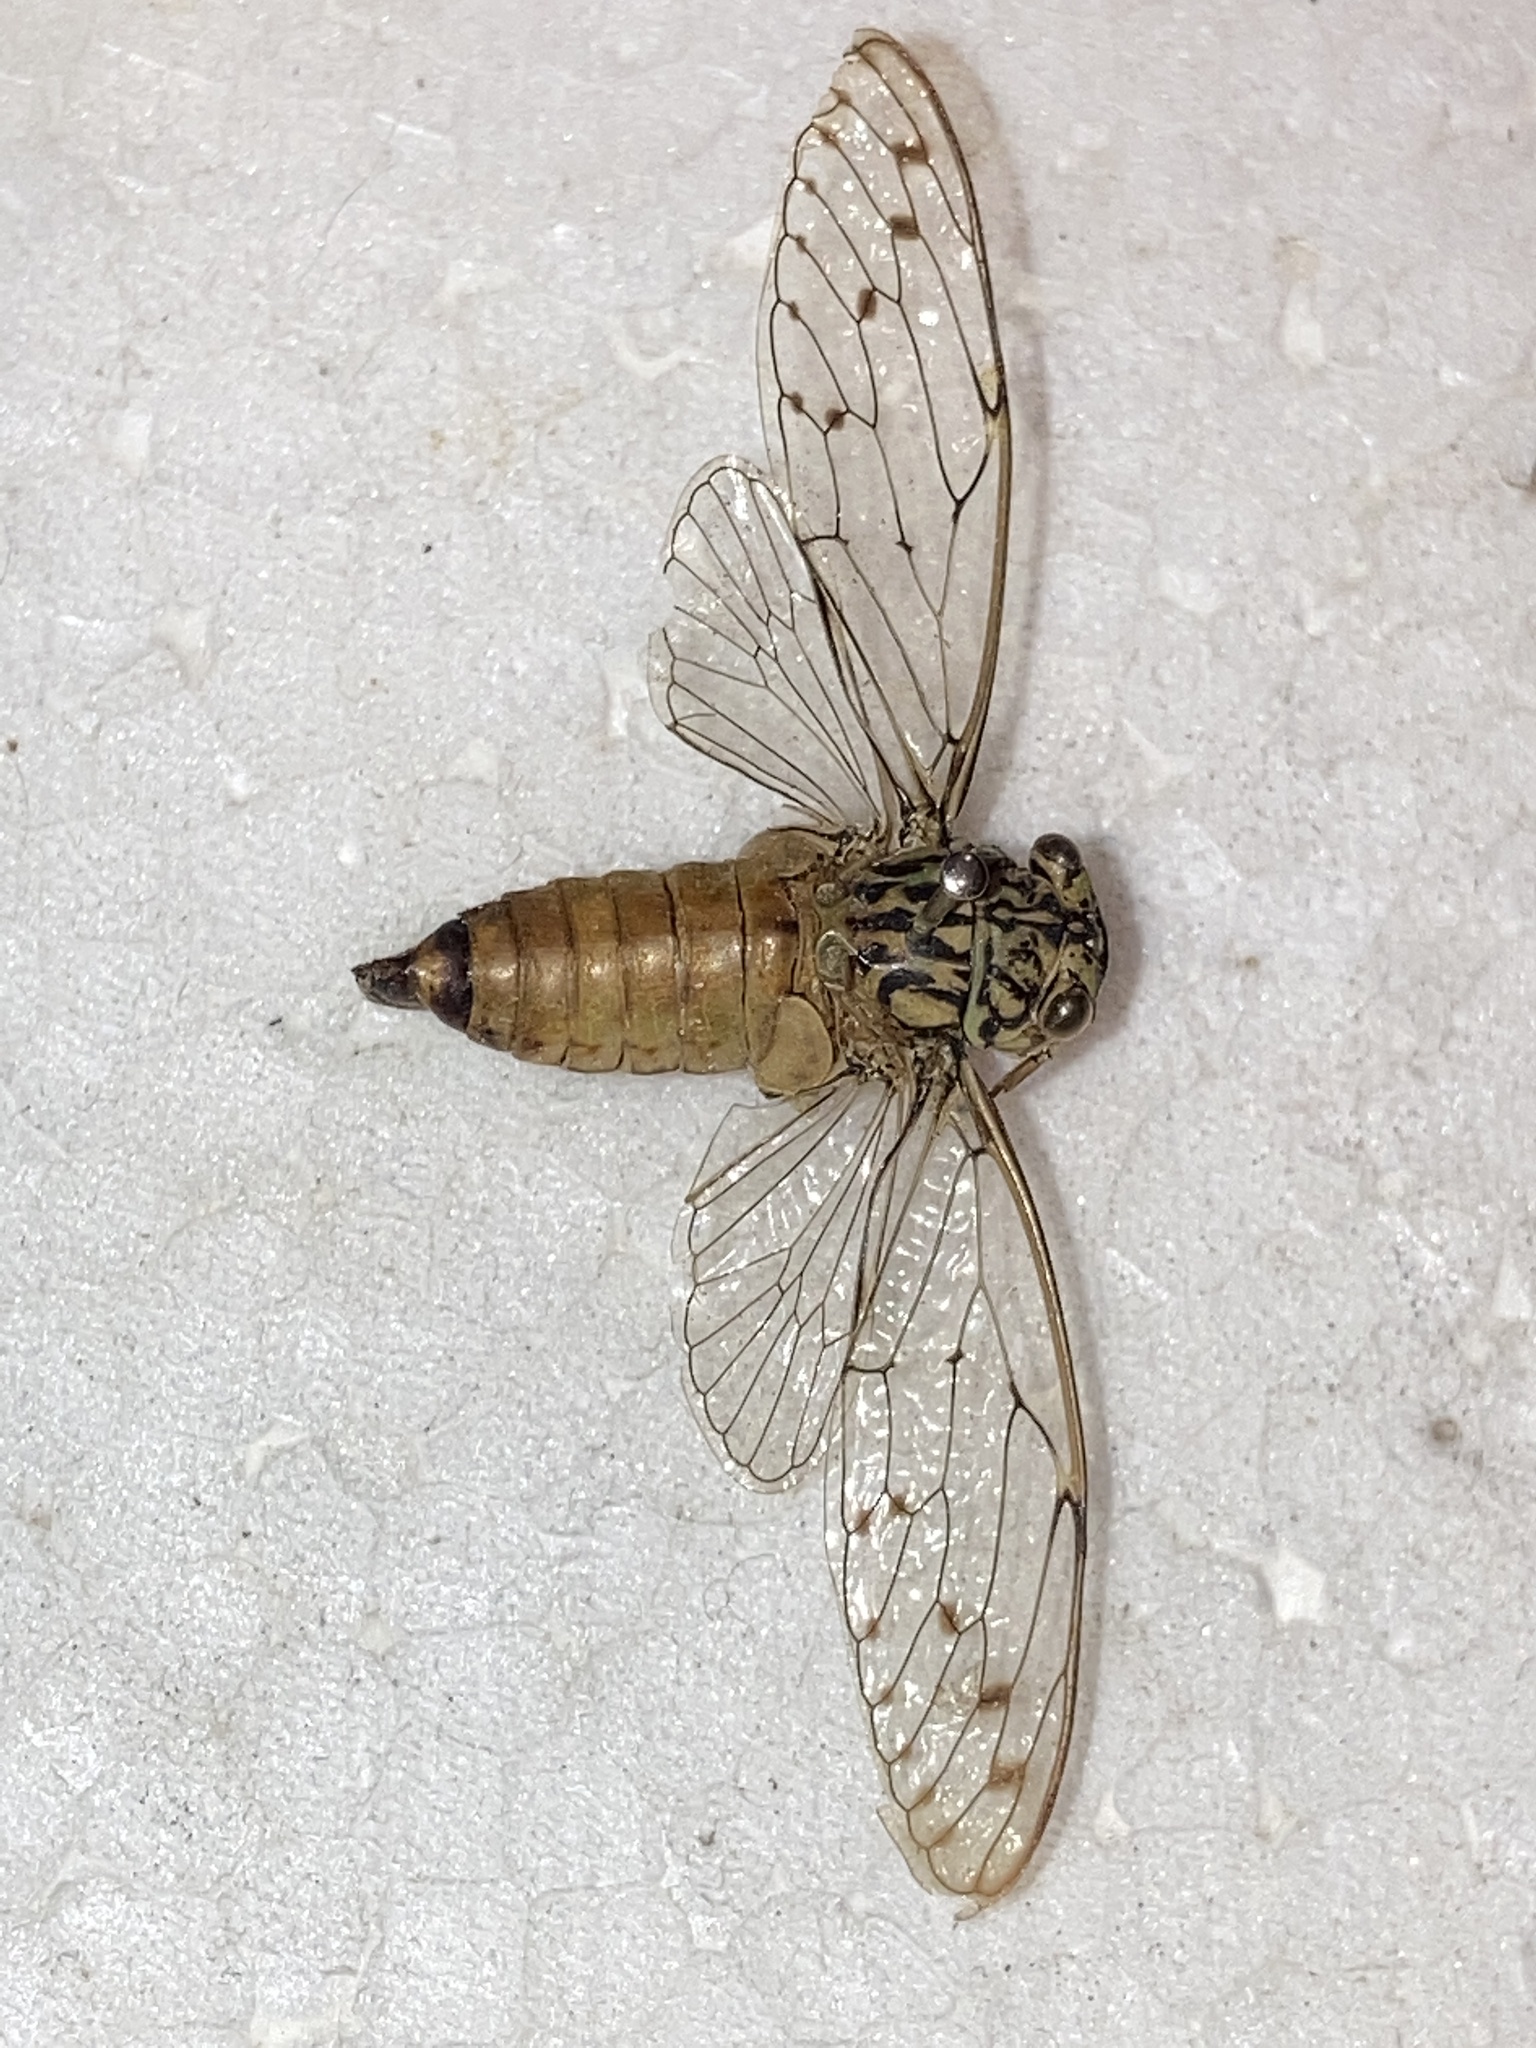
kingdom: Animalia
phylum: Arthropoda
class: Insecta
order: Hemiptera
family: Cicadidae
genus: Neocicada
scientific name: Neocicada hieroglyphica
